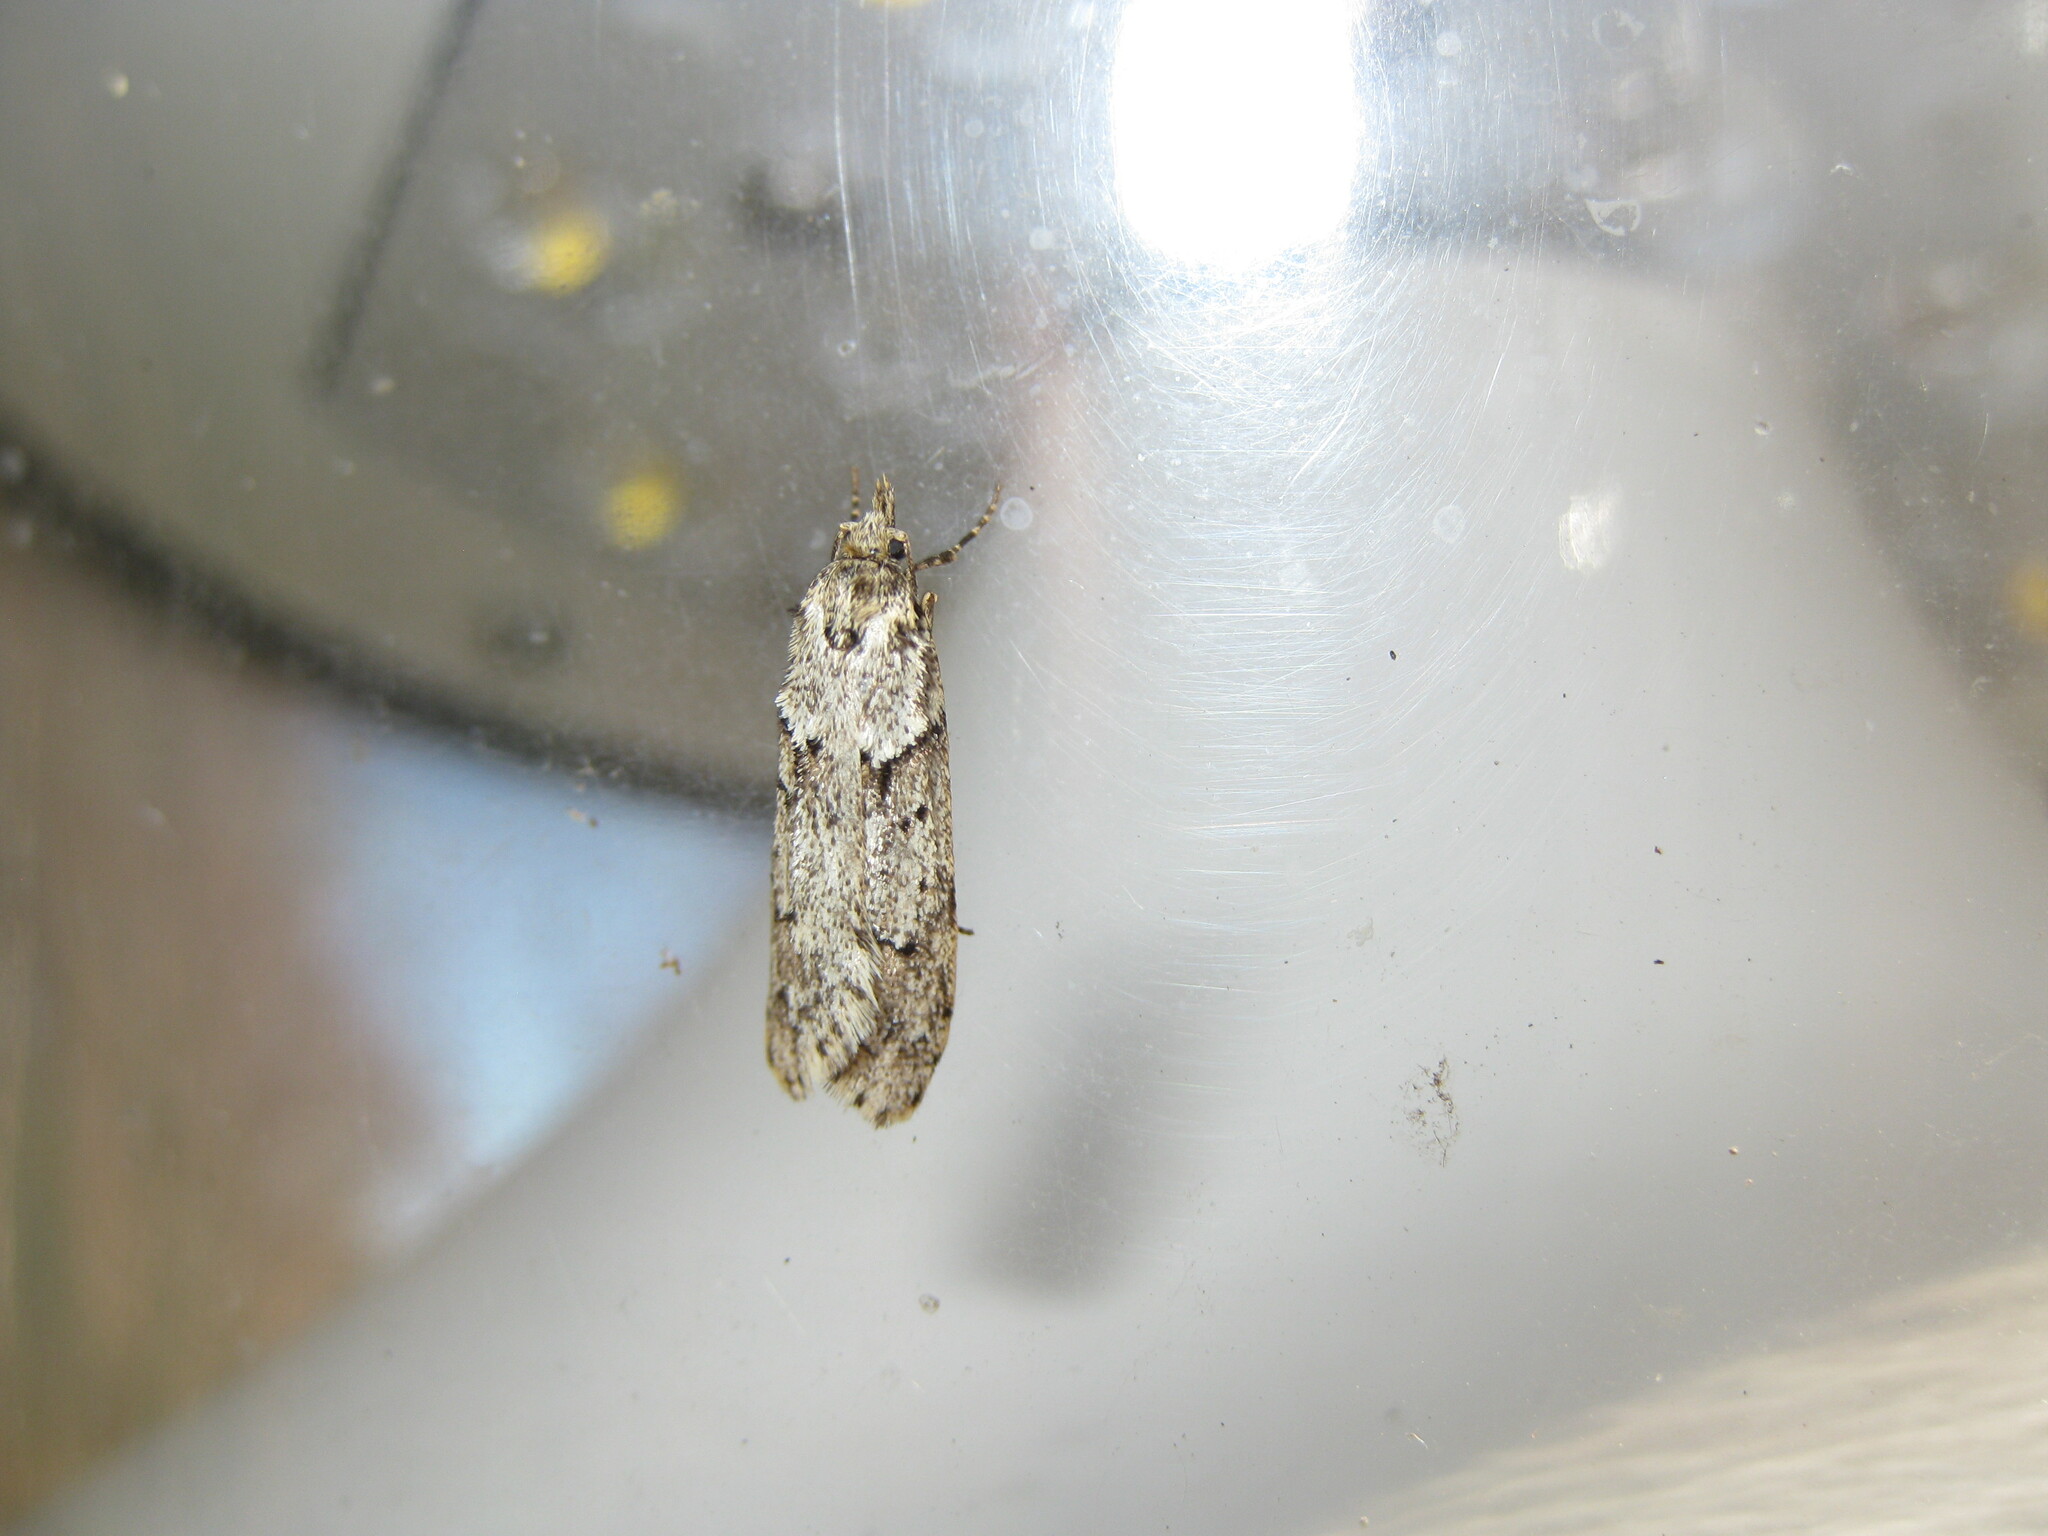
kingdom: Animalia
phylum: Arthropoda
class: Insecta
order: Lepidoptera
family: Lypusidae
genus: Diurnea
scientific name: Diurnea fagella
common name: March tubic
